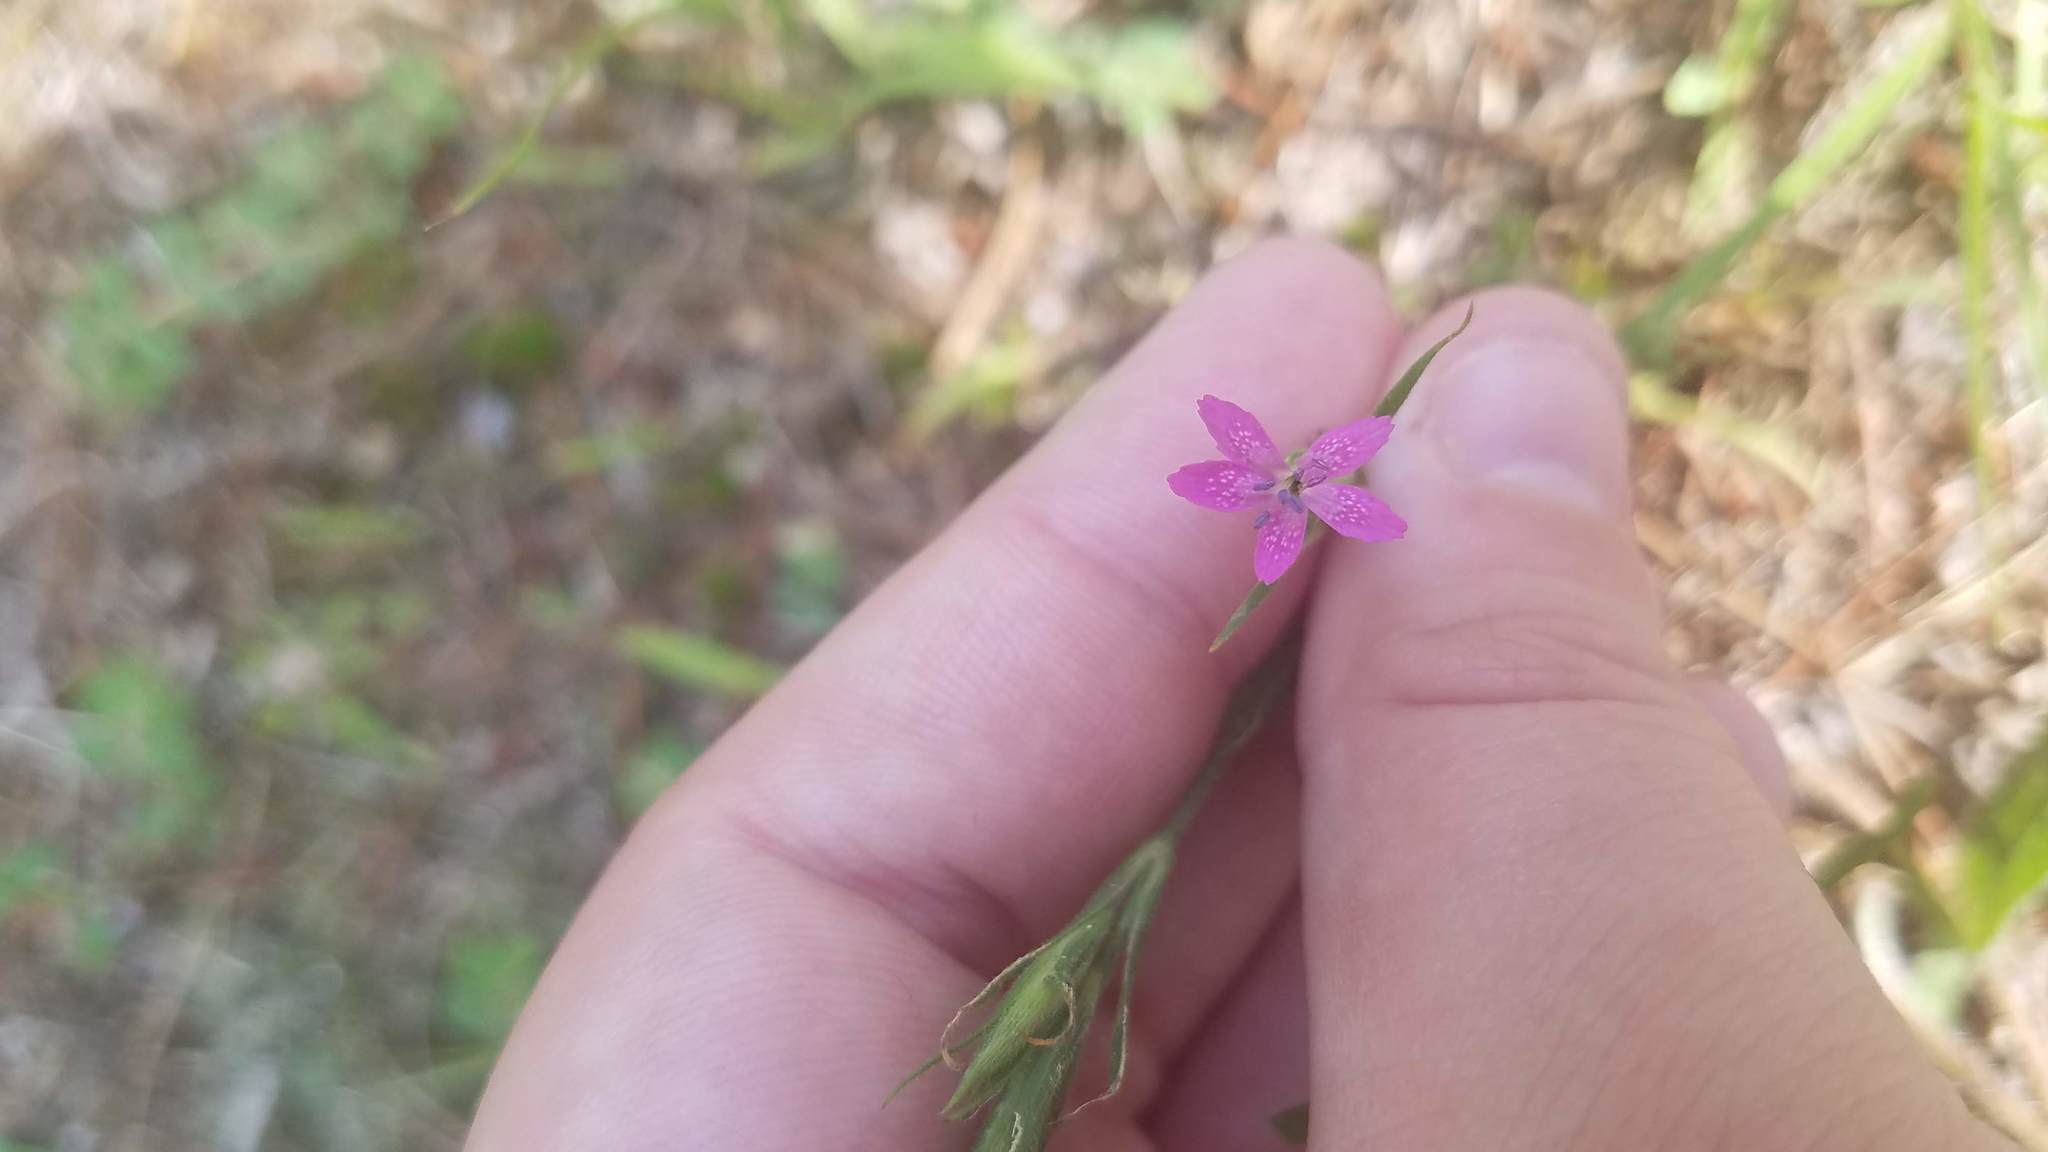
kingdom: Plantae
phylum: Tracheophyta
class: Magnoliopsida
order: Caryophyllales
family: Caryophyllaceae
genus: Dianthus
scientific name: Dianthus armeria
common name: Deptford pink
